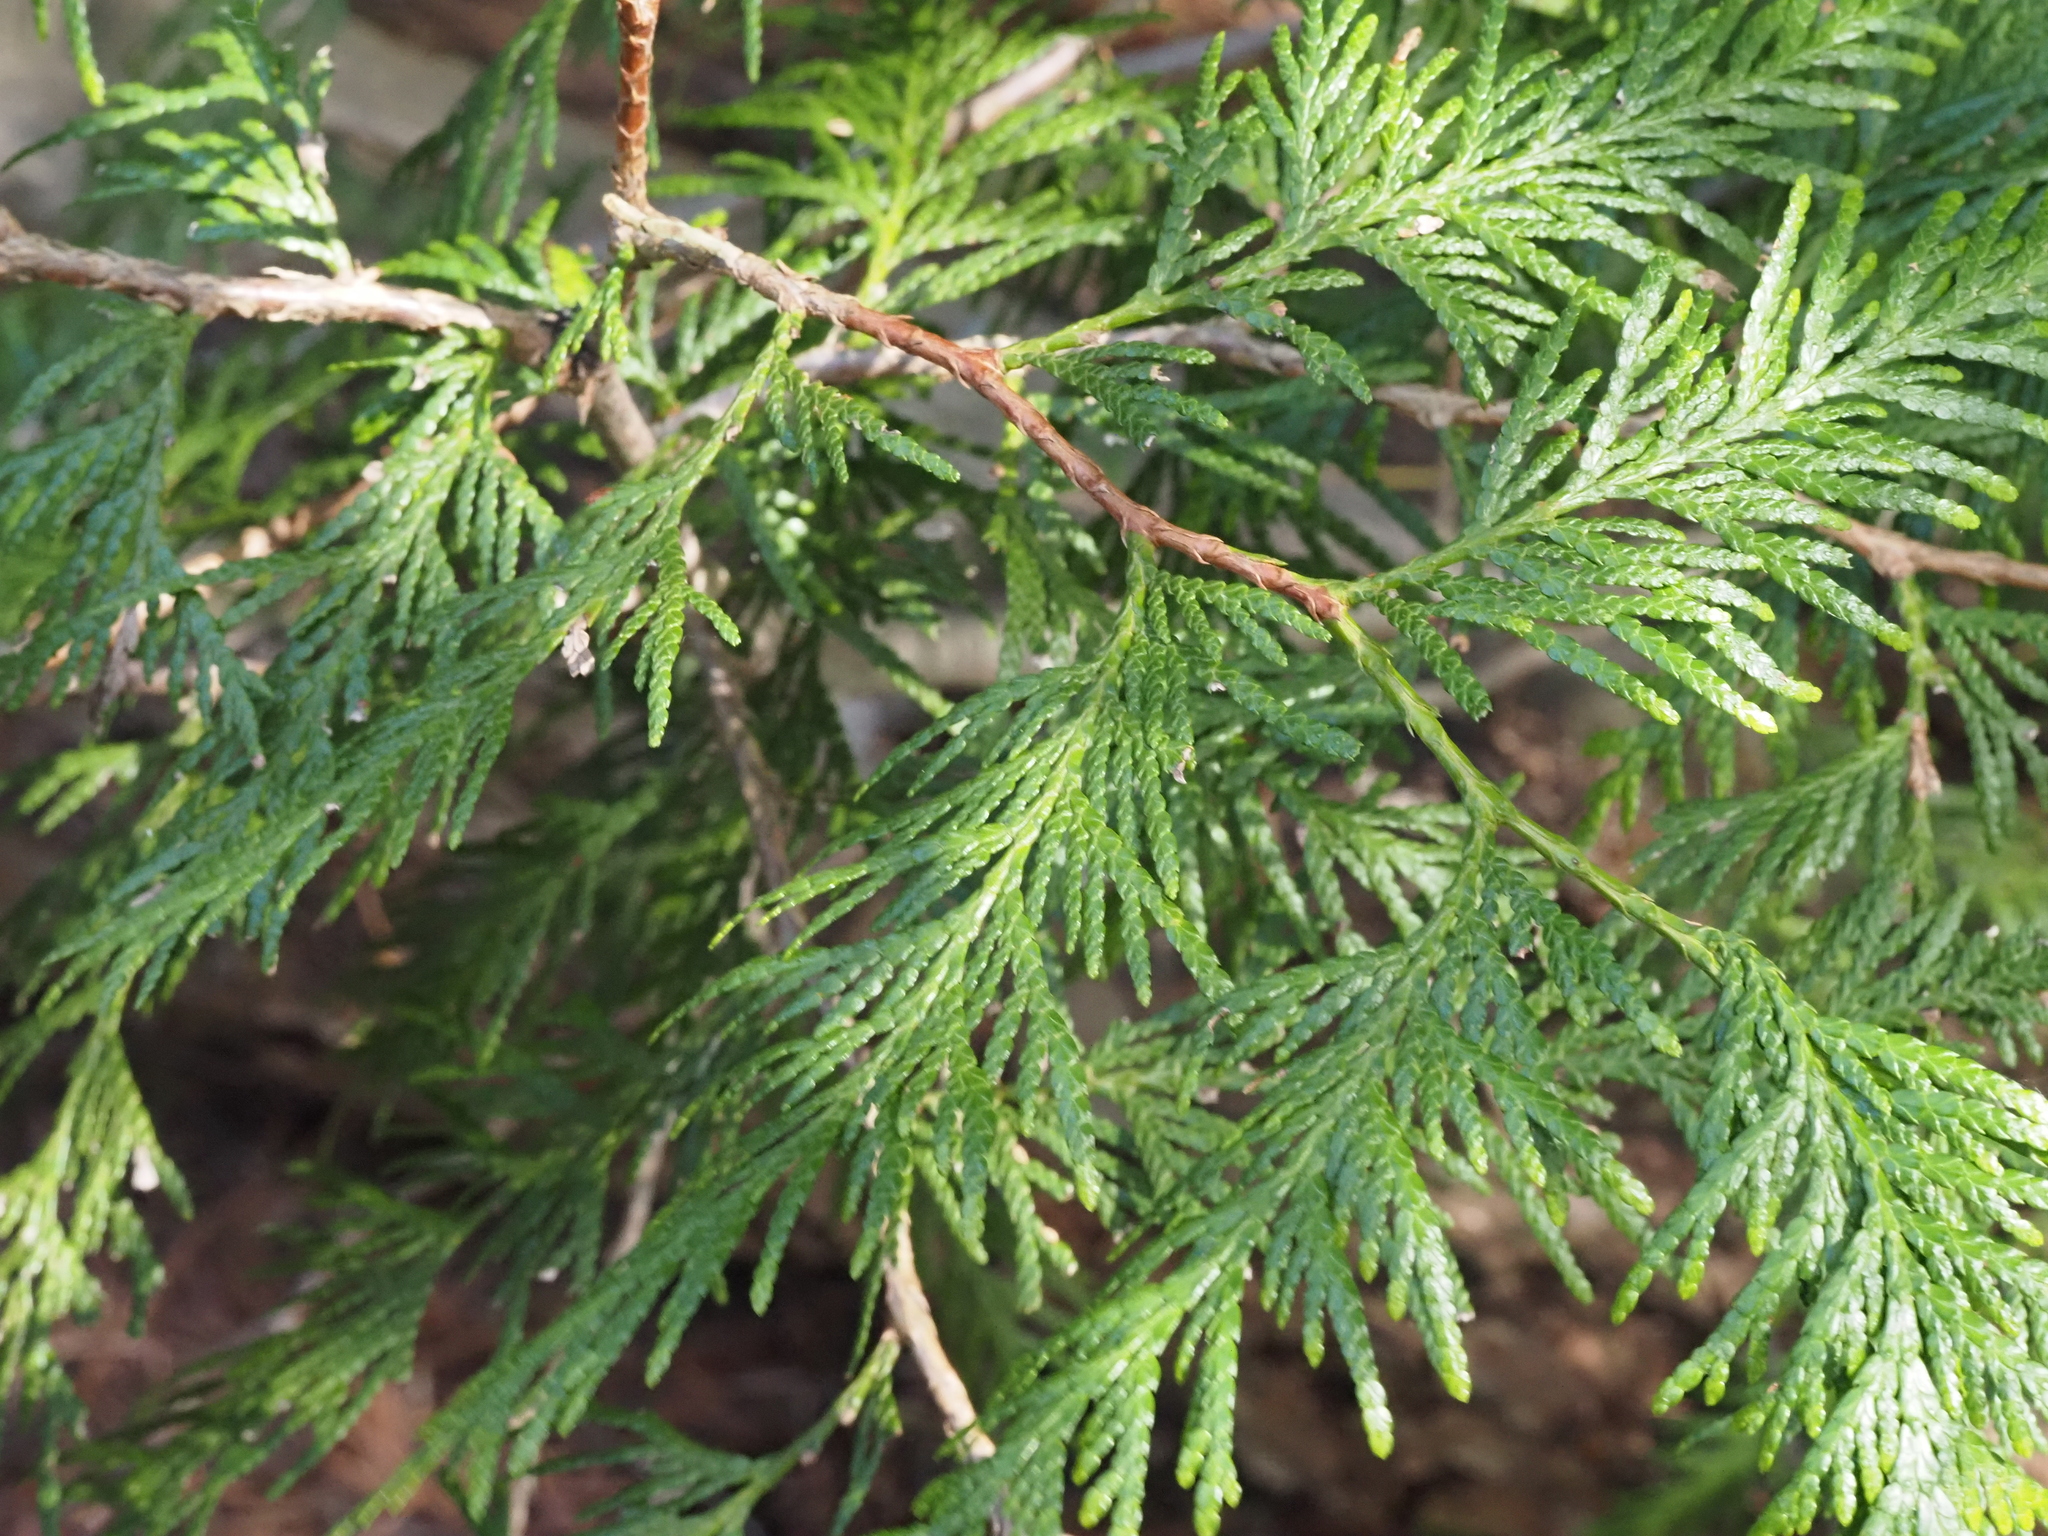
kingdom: Plantae
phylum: Tracheophyta
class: Pinopsida
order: Pinales
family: Cupressaceae
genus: Thuja
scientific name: Thuja plicata
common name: Western red-cedar
